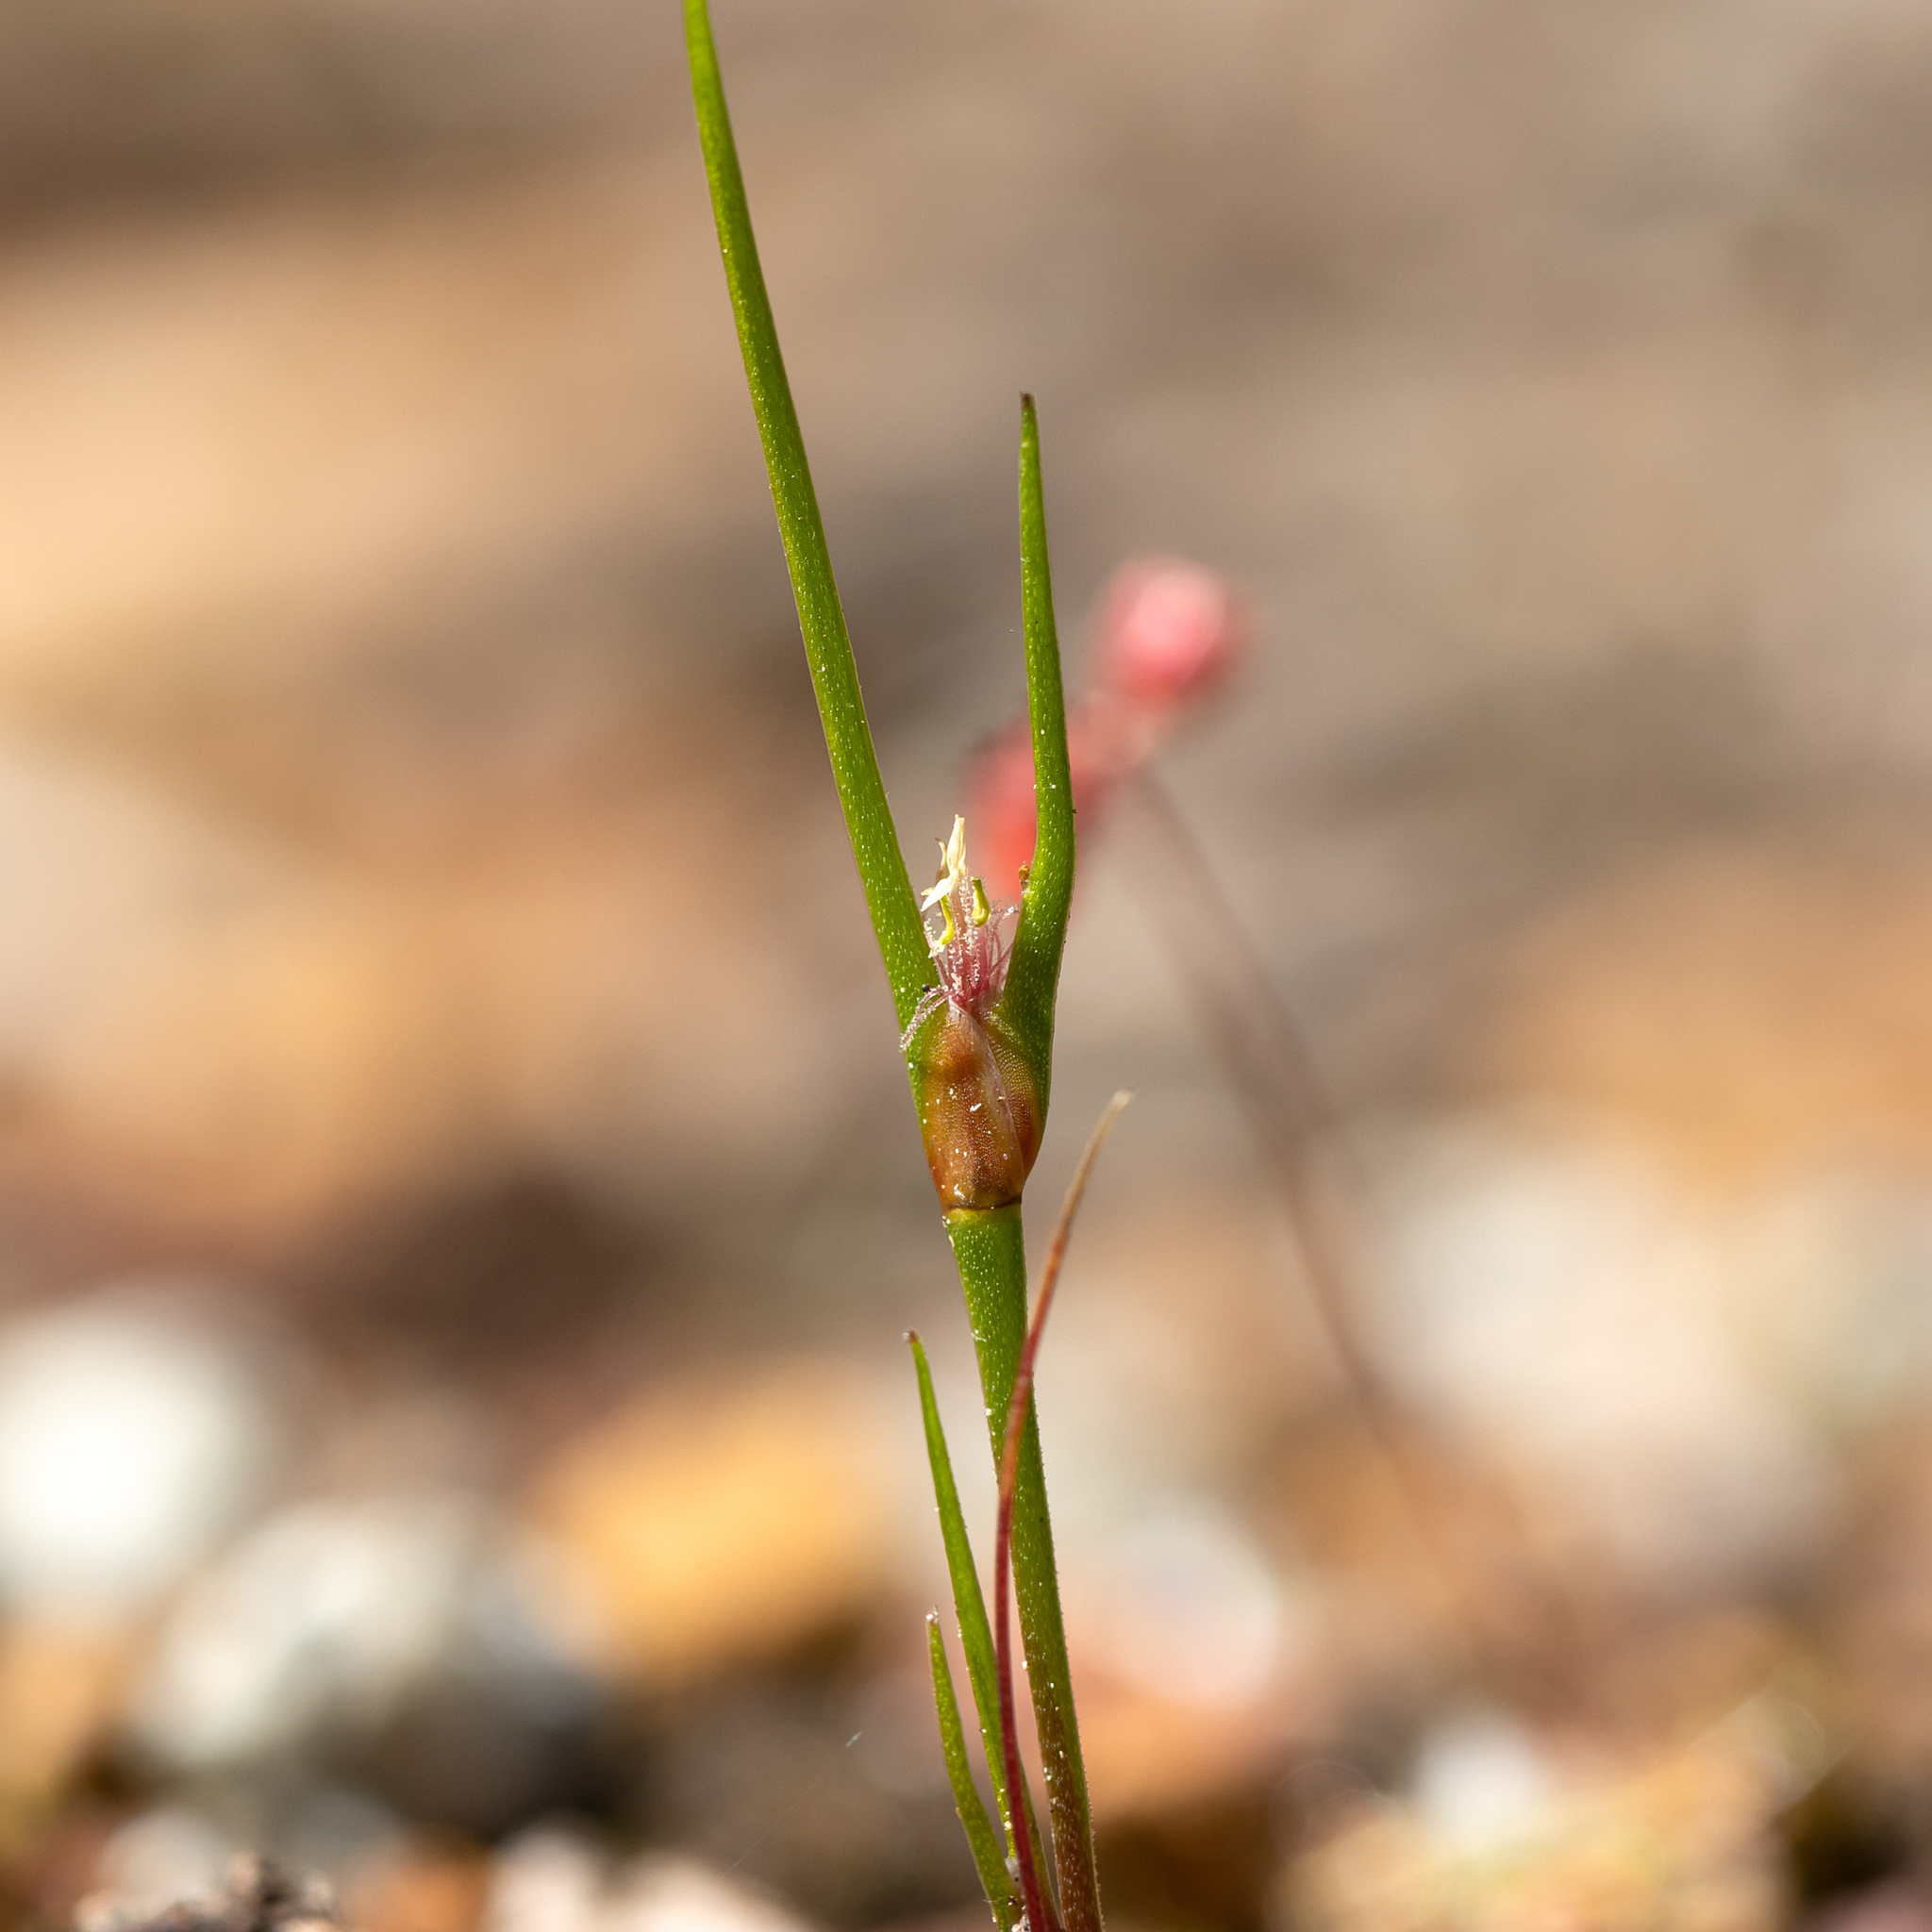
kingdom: Plantae
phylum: Tracheophyta
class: Liliopsida
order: Poales
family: Restionaceae
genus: Centrolepis
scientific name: Centrolepis aristata
